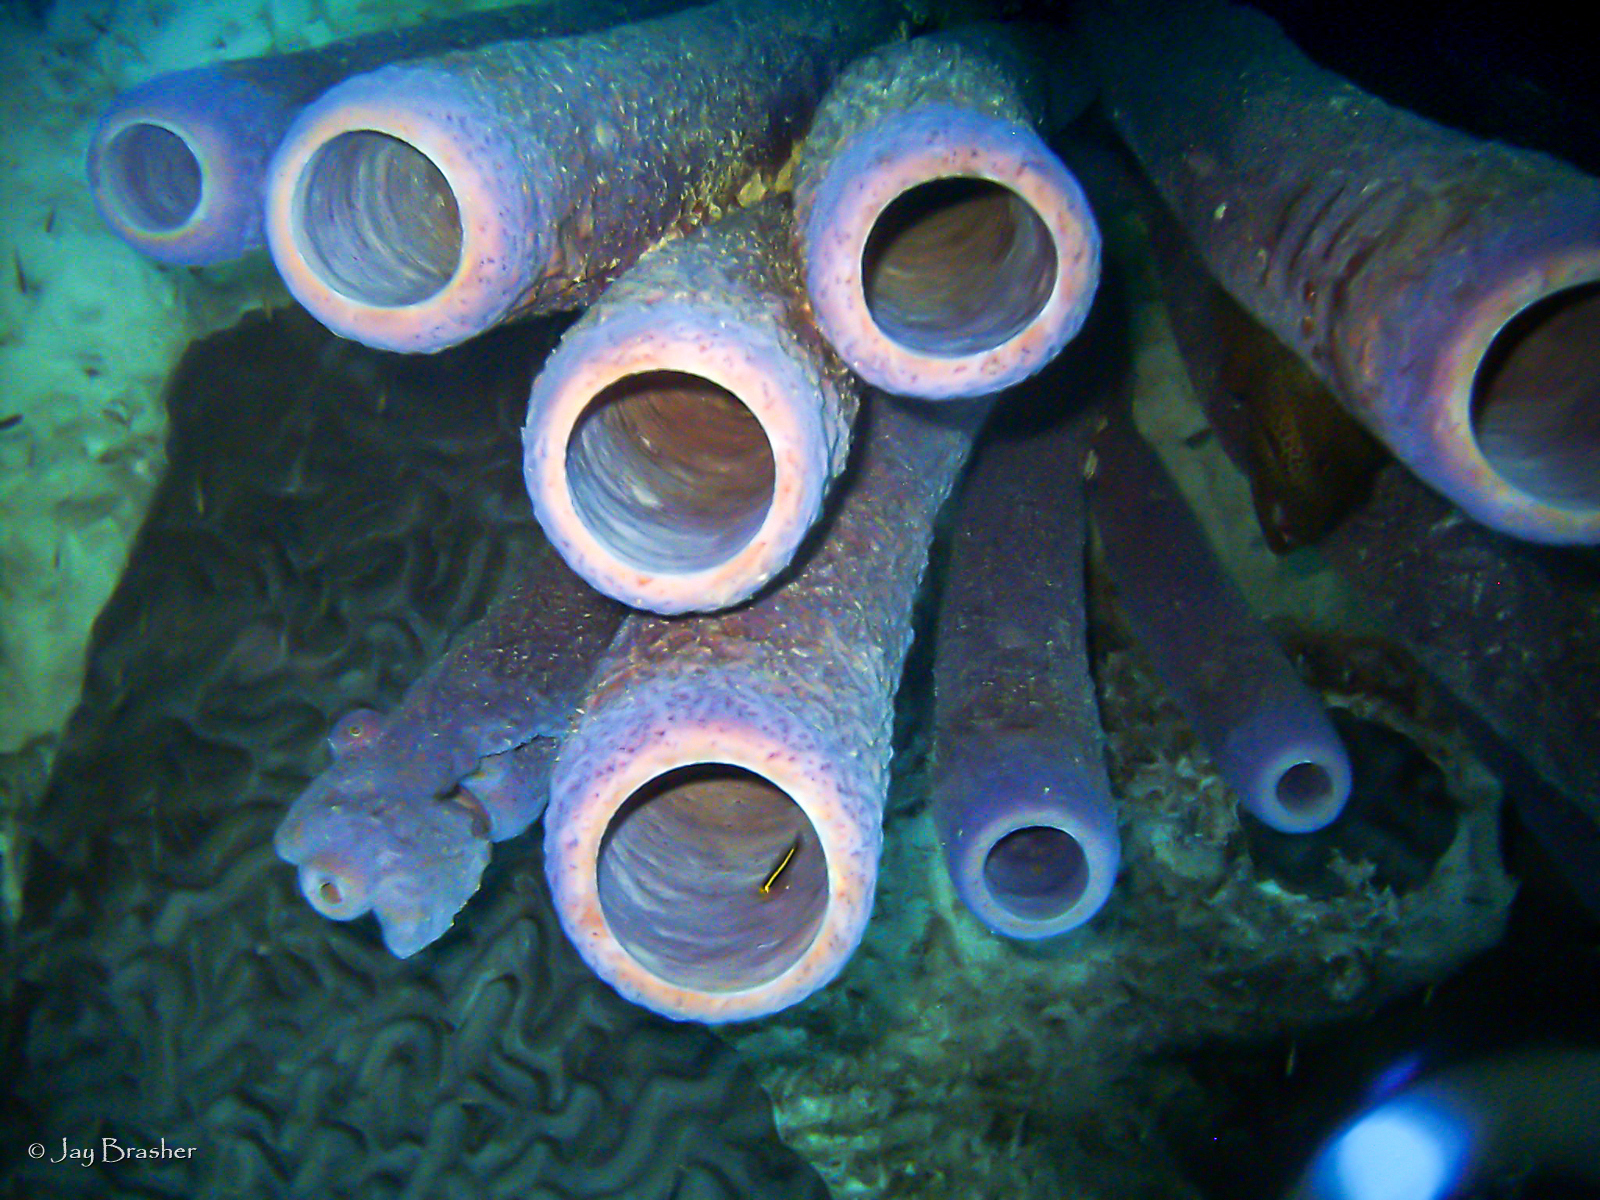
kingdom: Animalia
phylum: Porifera
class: Demospongiae
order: Verongiida
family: Aplysinidae
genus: Aplysina
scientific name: Aplysina archeri
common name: Stove-pipe sponge
